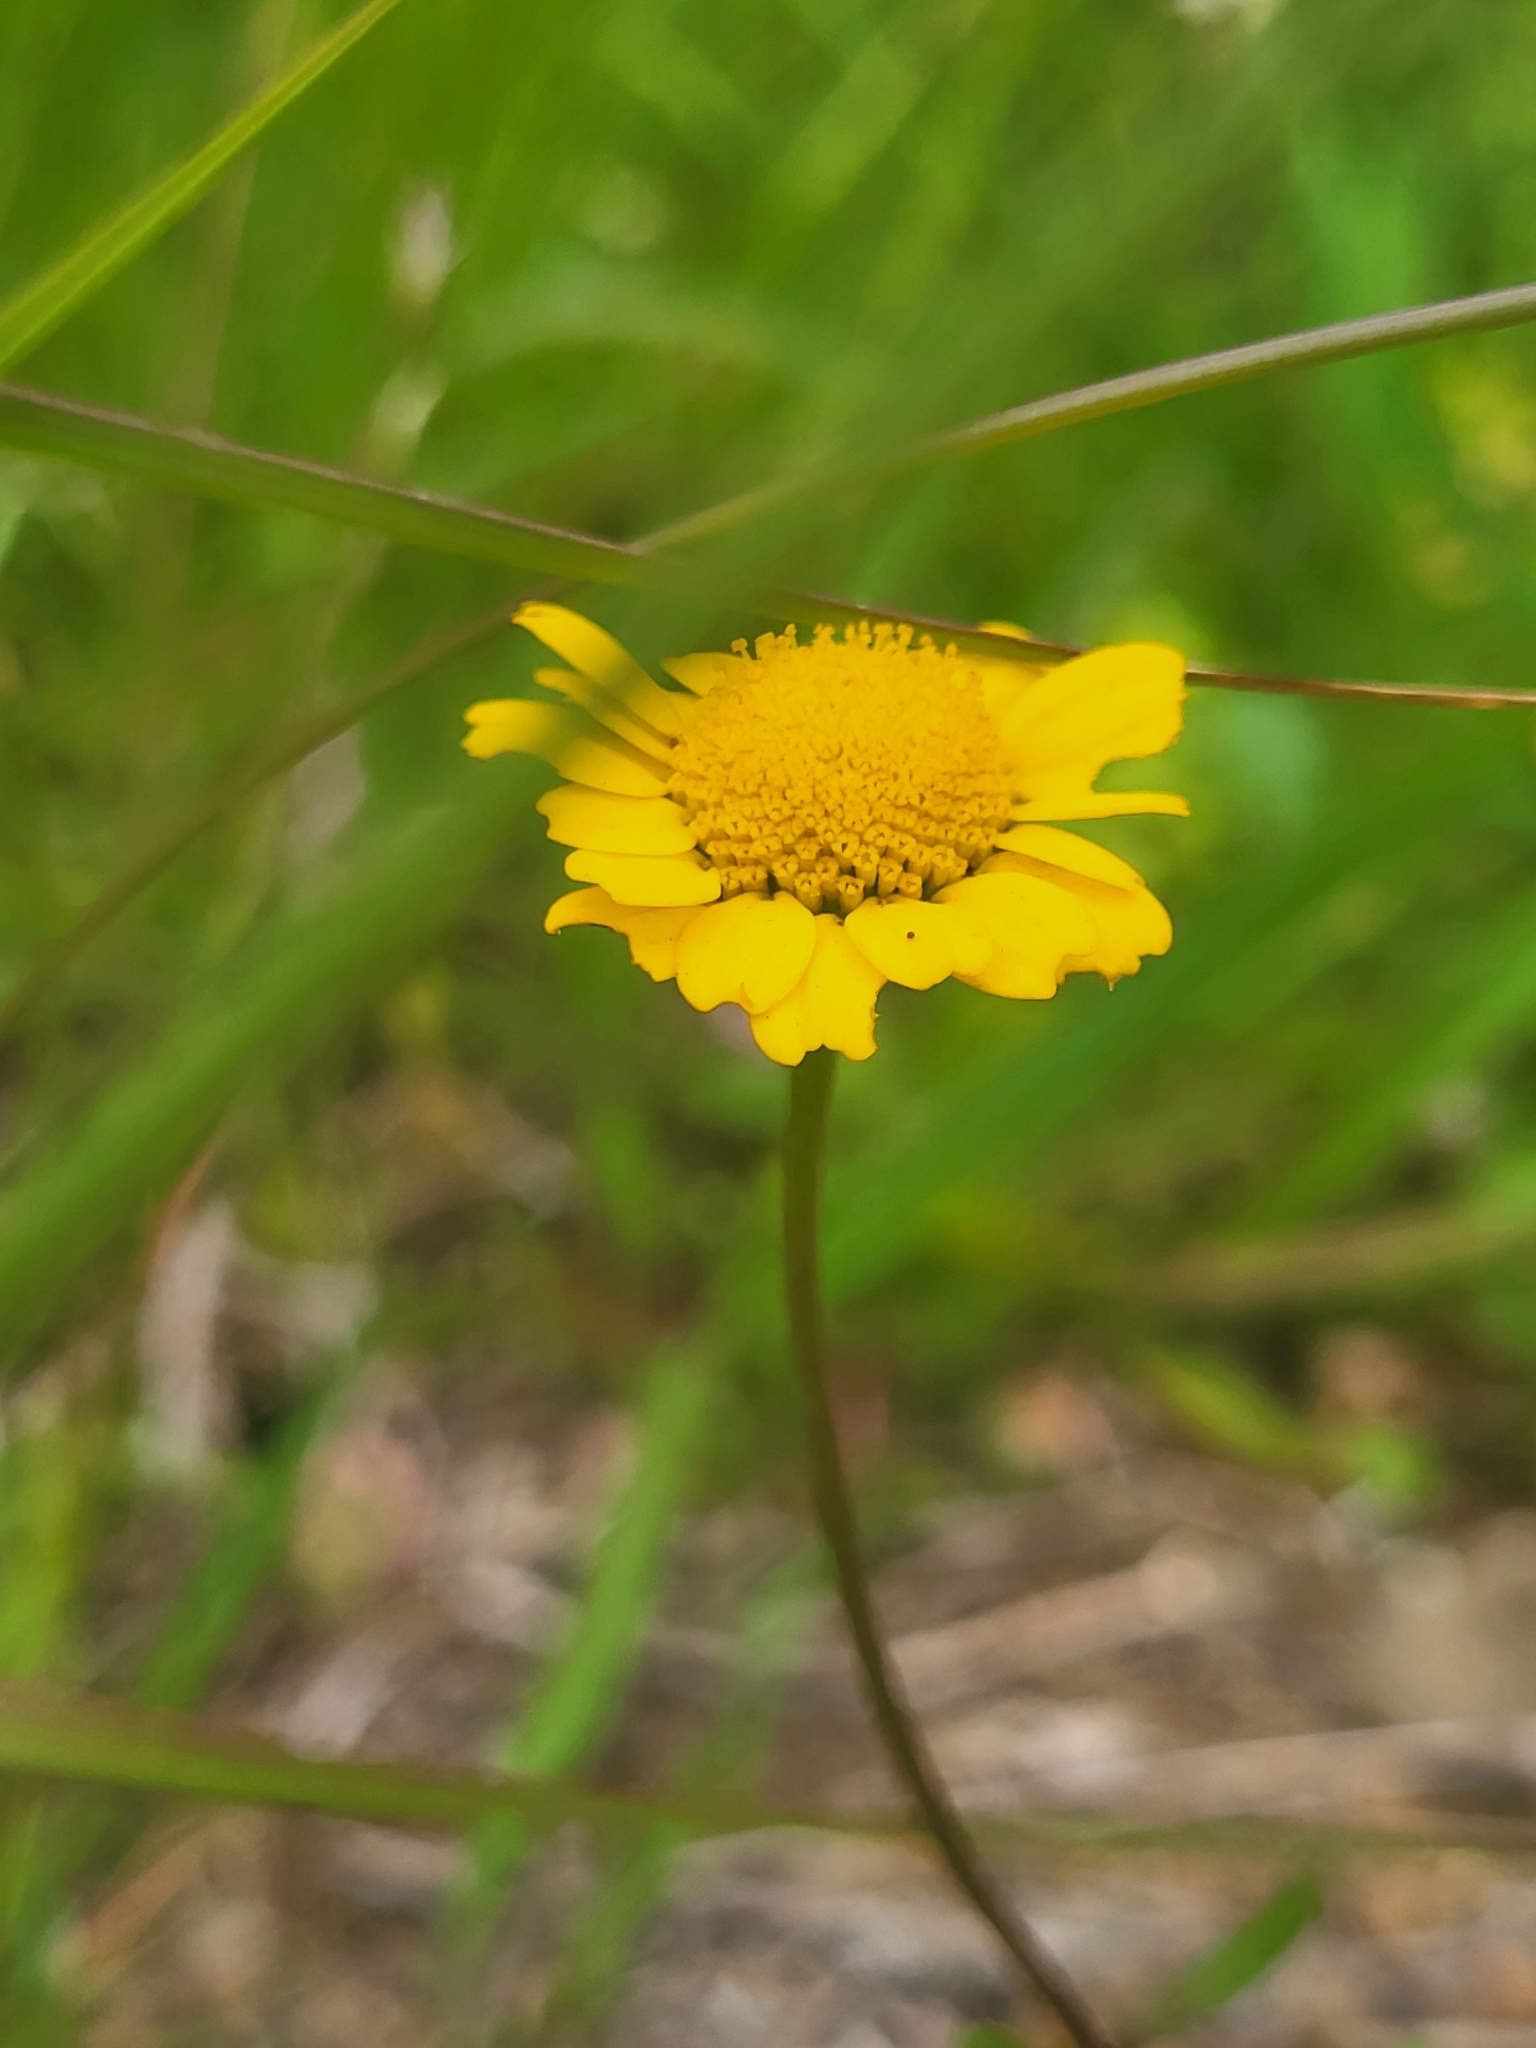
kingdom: Plantae
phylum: Tracheophyta
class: Magnoliopsida
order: Asterales
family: Asteraceae
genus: Coleostephus
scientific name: Coleostephus myconis
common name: Mediterranean marigold
